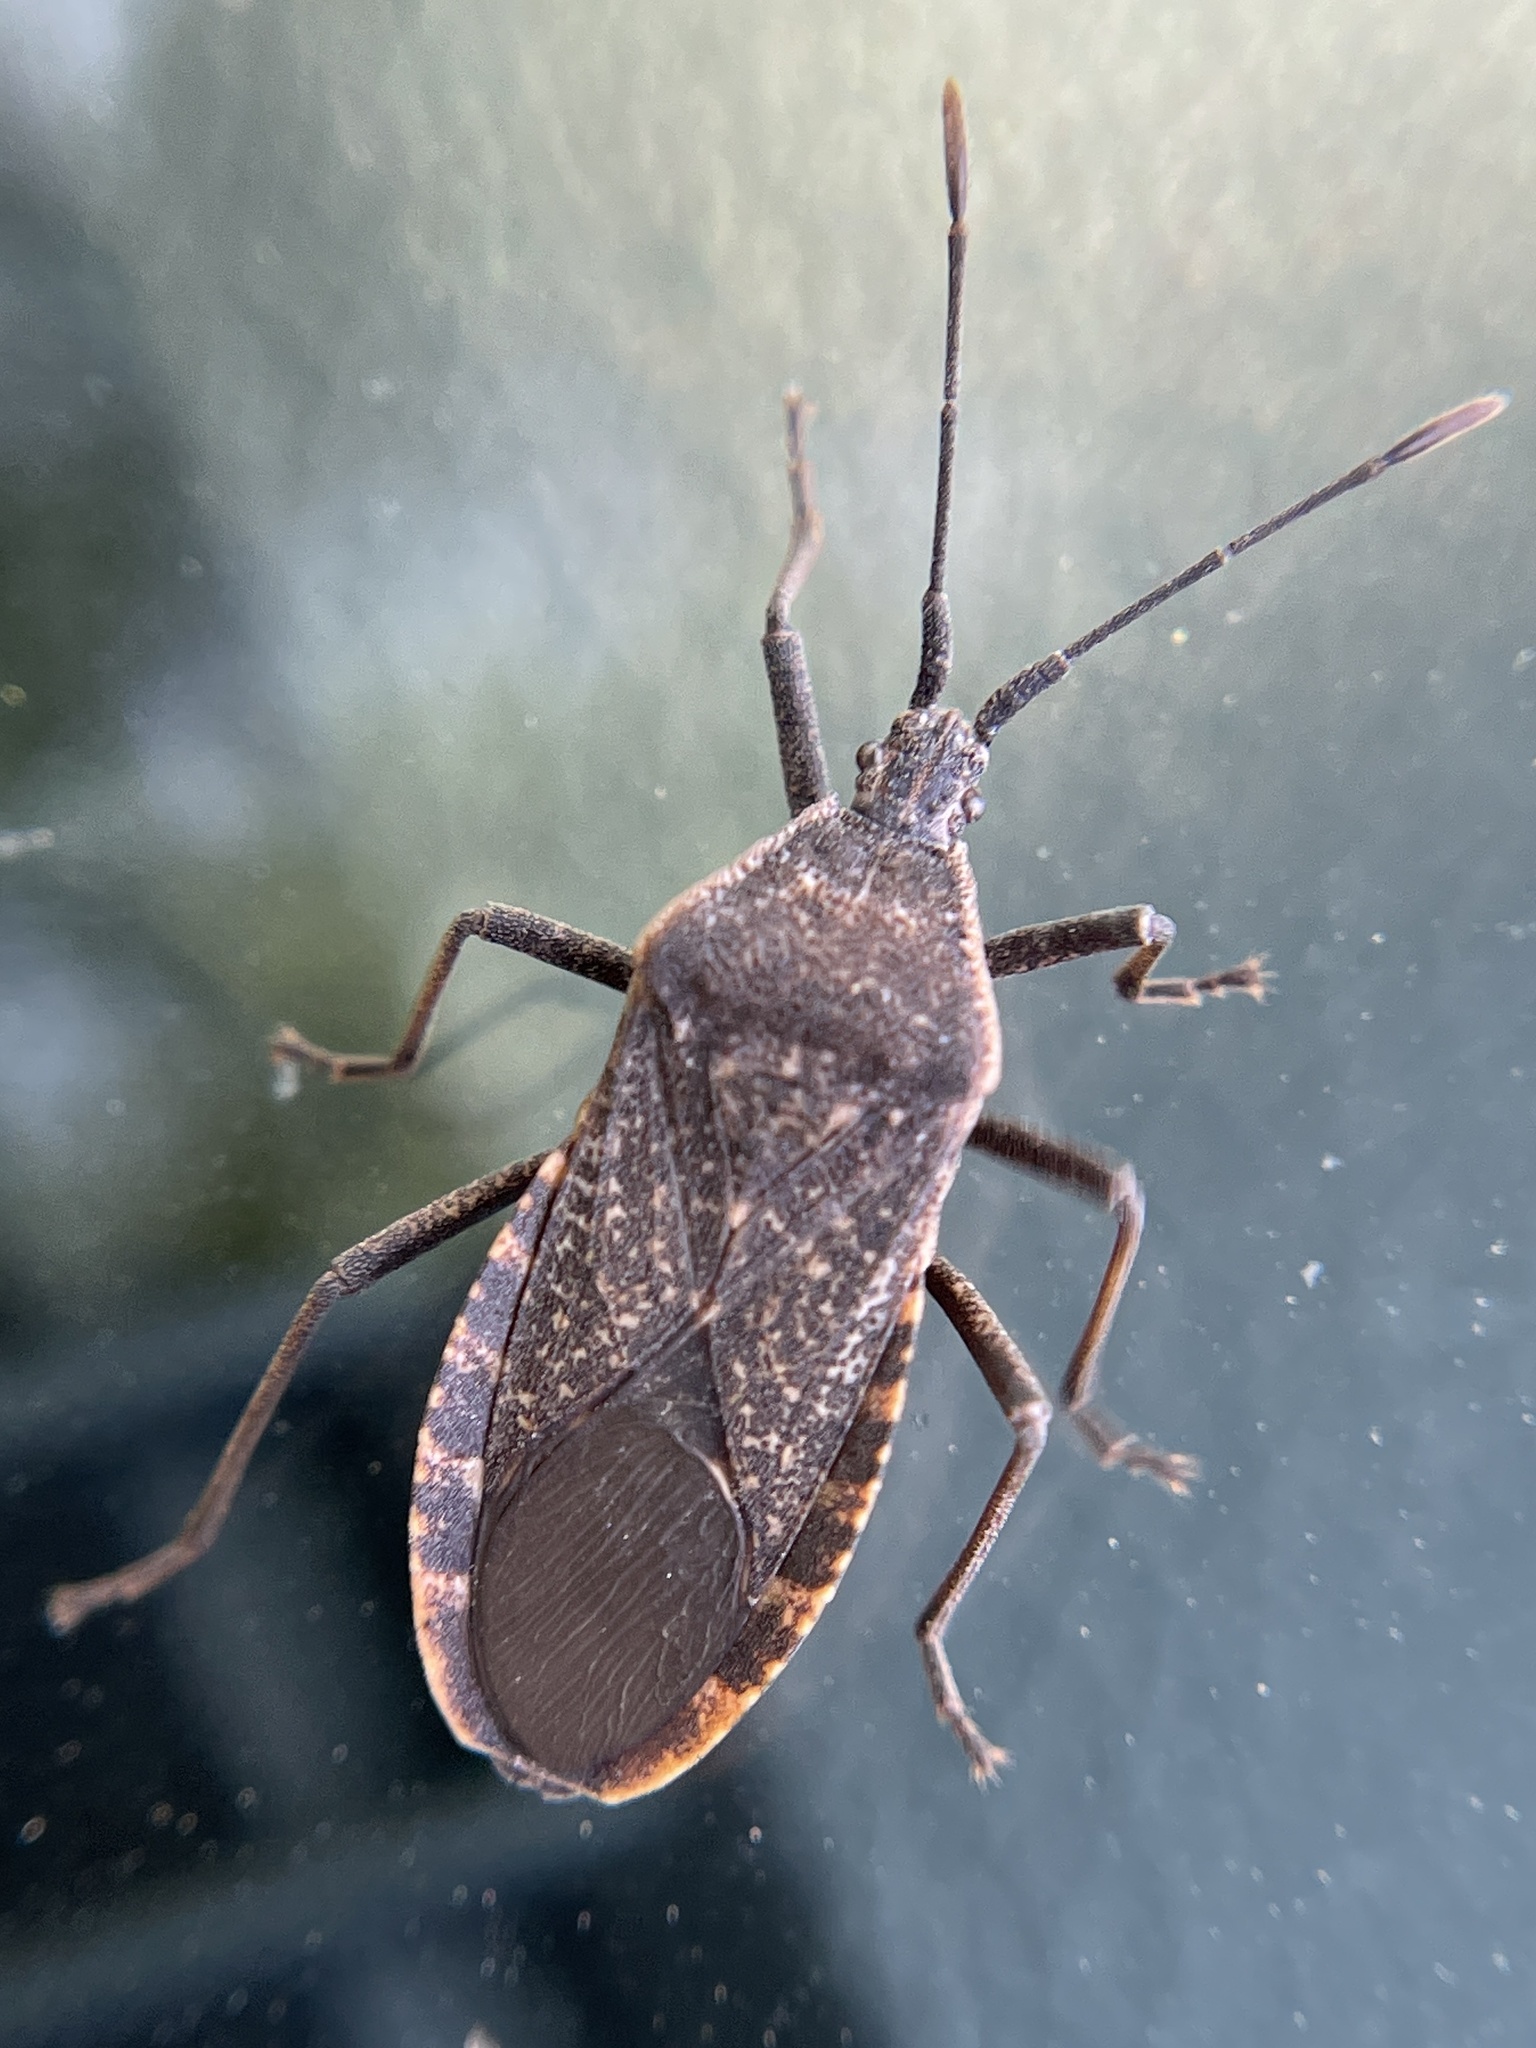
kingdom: Animalia
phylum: Arthropoda
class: Insecta
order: Hemiptera
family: Coreidae
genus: Anasa
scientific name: Anasa tristis
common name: Squash bug
